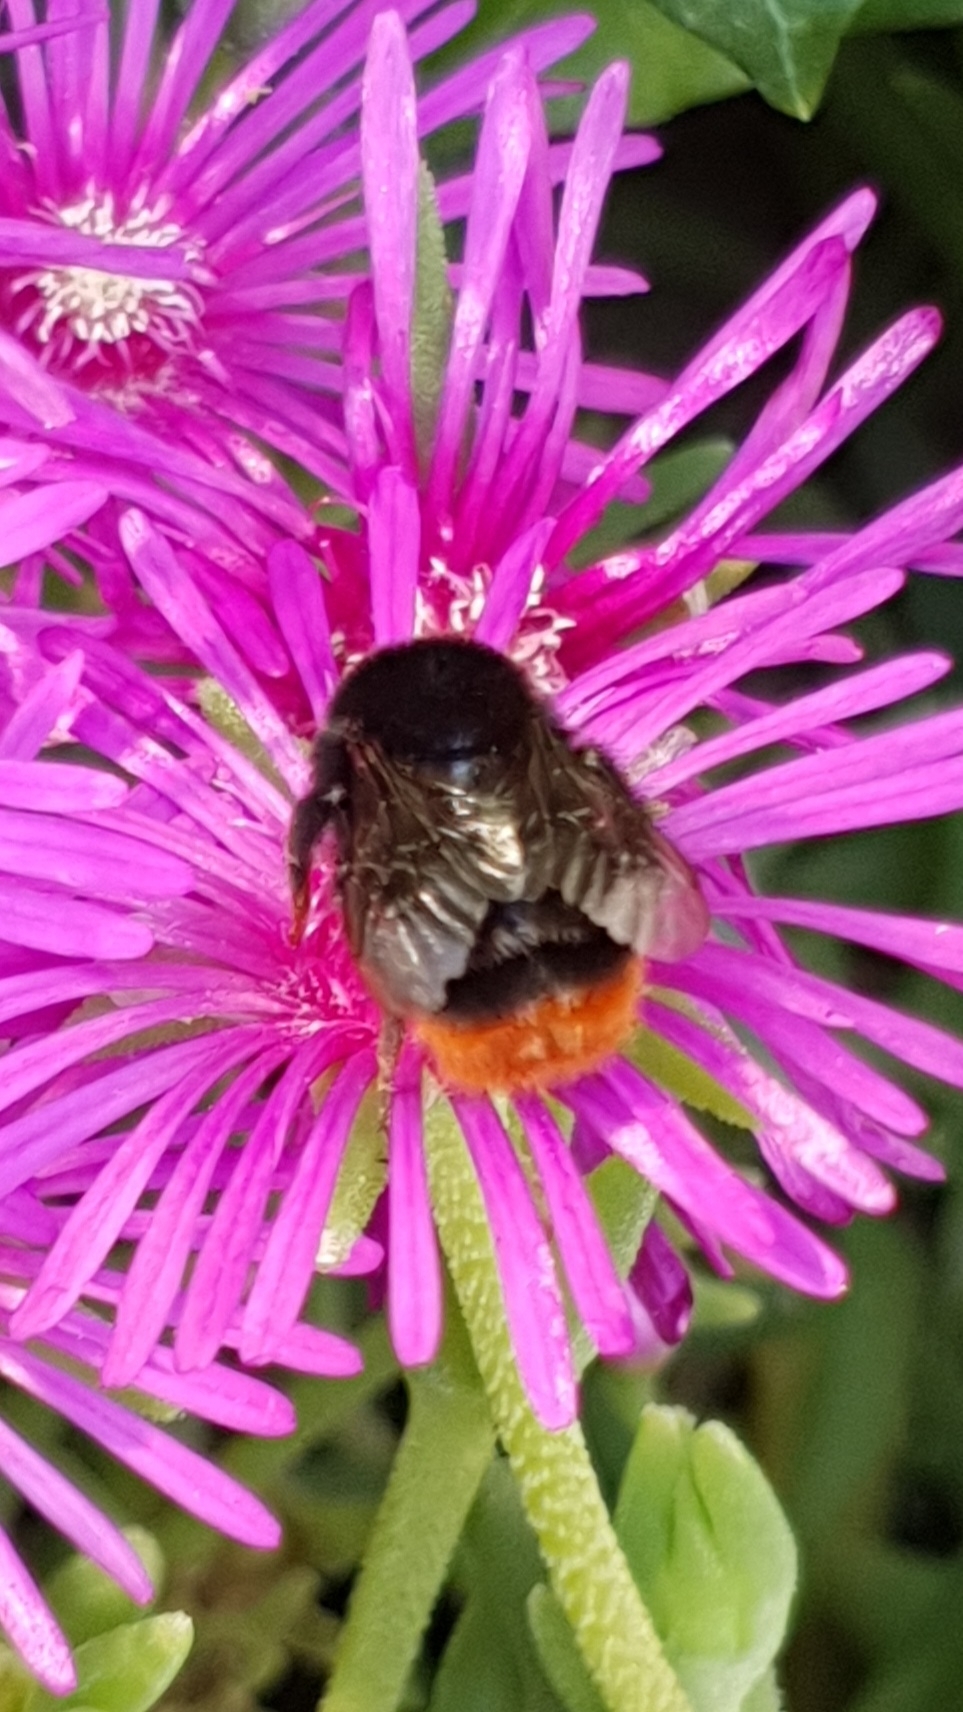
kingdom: Animalia
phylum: Arthropoda
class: Insecta
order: Hymenoptera
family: Apidae
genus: Bombus
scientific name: Bombus lapidarius
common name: Large red-tailed humble-bee
